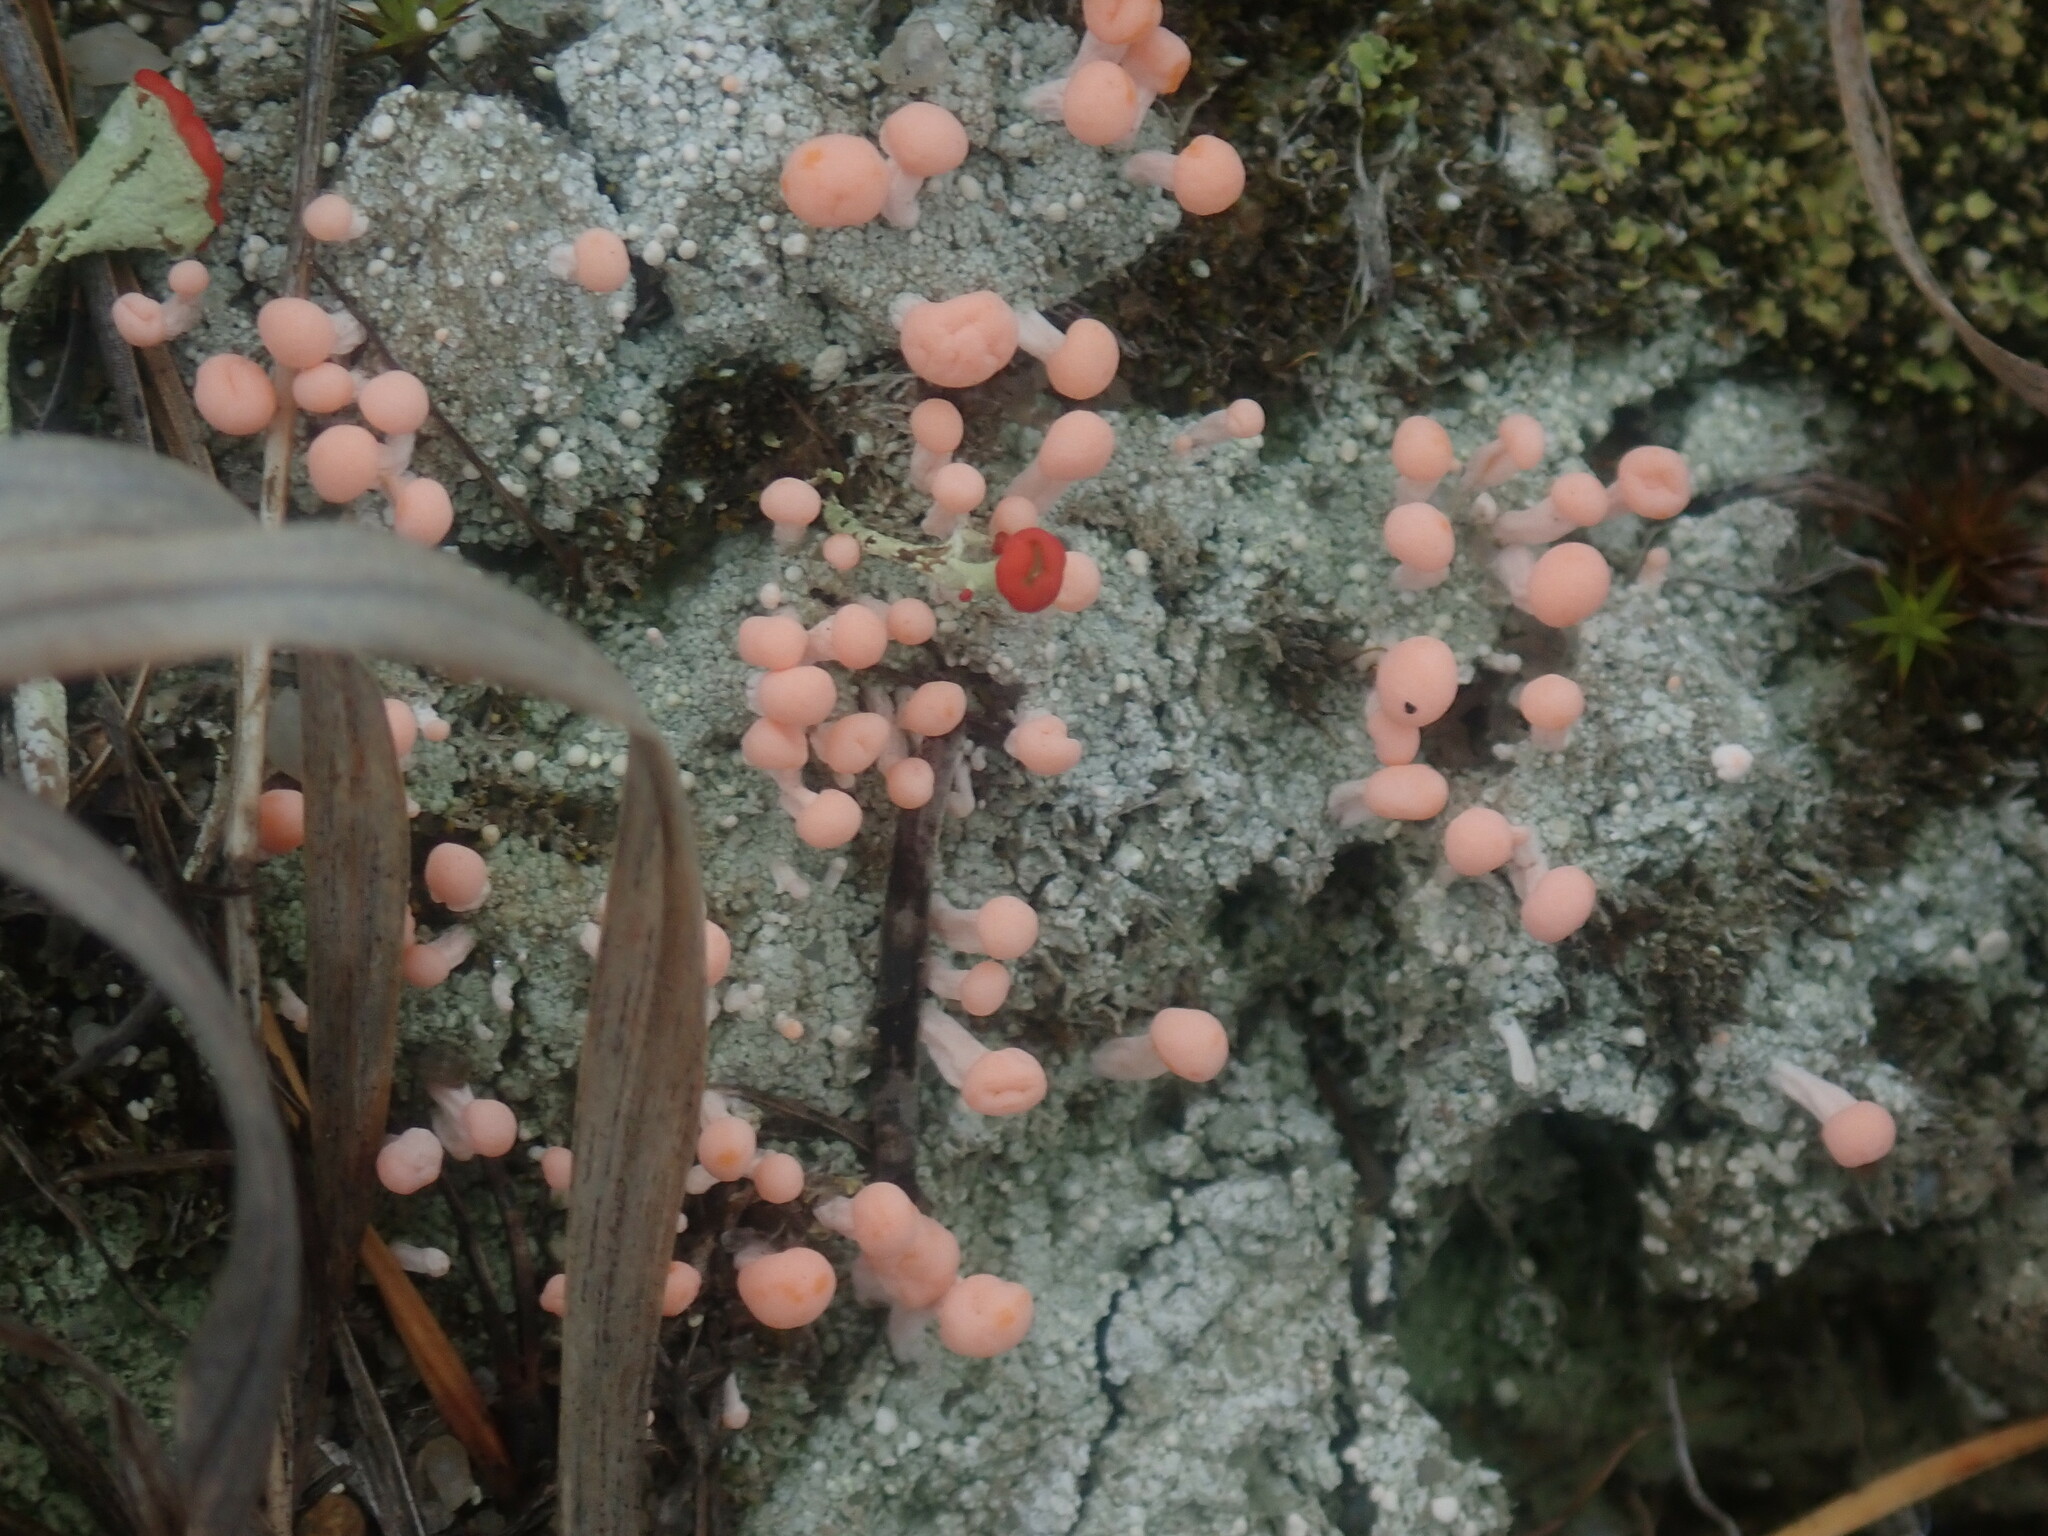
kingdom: Fungi
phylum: Ascomycota
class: Lecanoromycetes
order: Pertusariales
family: Icmadophilaceae
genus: Dibaeis
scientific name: Dibaeis baeomyces
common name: Pink earth lichen
